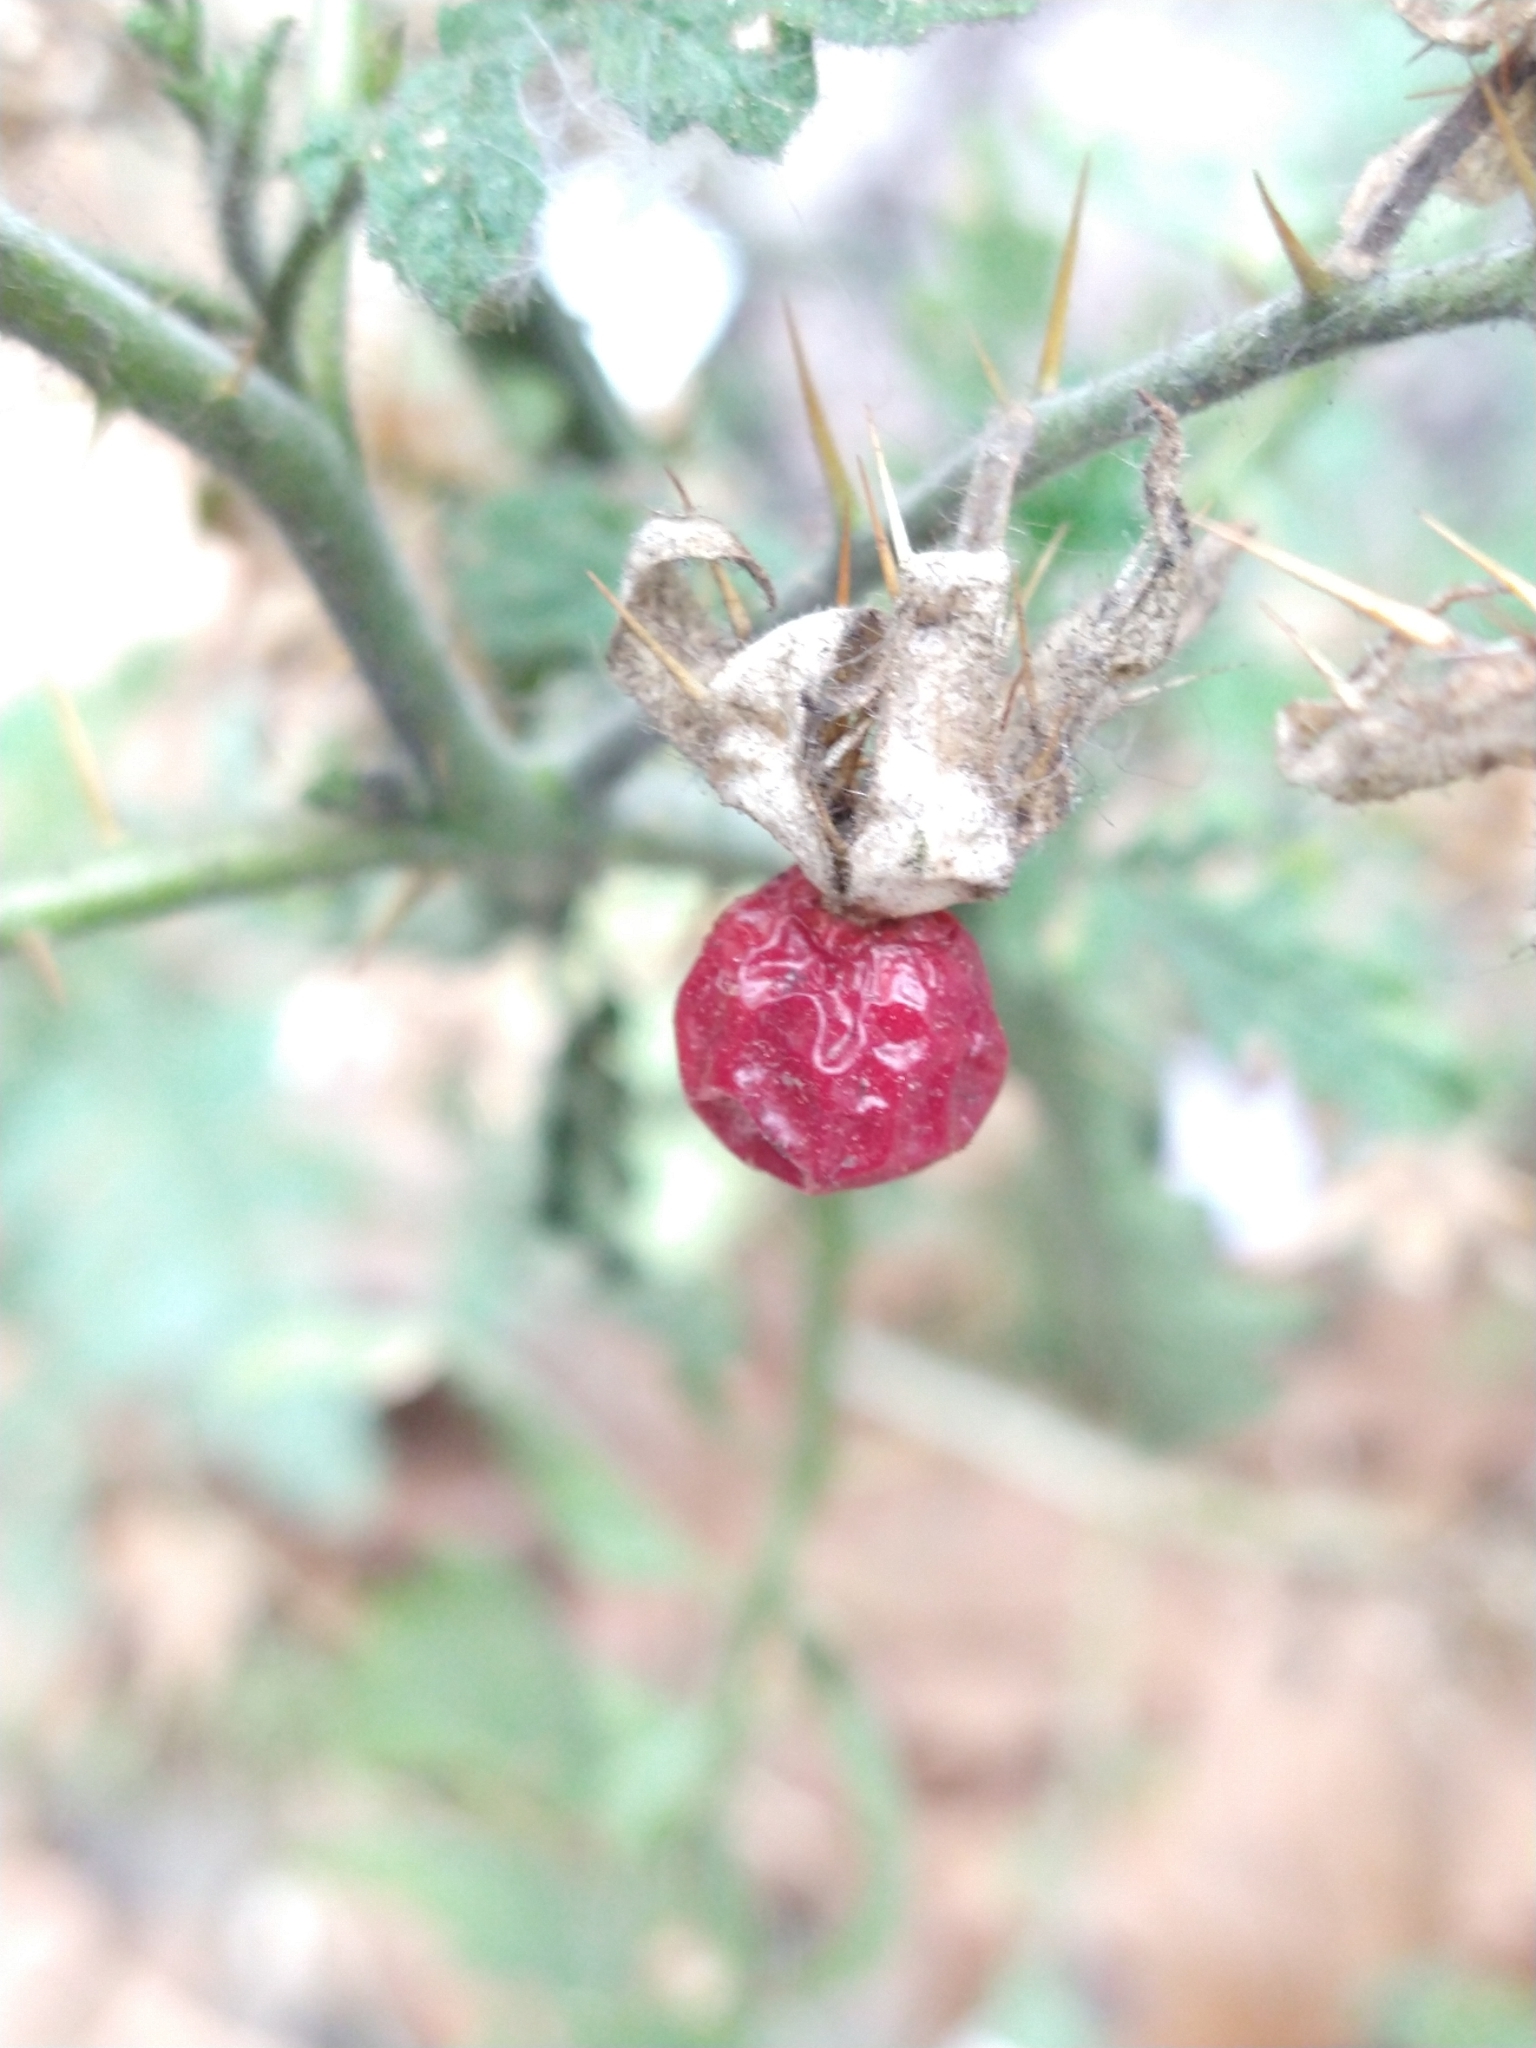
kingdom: Plantae
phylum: Tracheophyta
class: Magnoliopsida
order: Solanales
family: Solanaceae
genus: Solanum
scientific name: Solanum sisymbriifolium
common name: Red buffalo-bur
